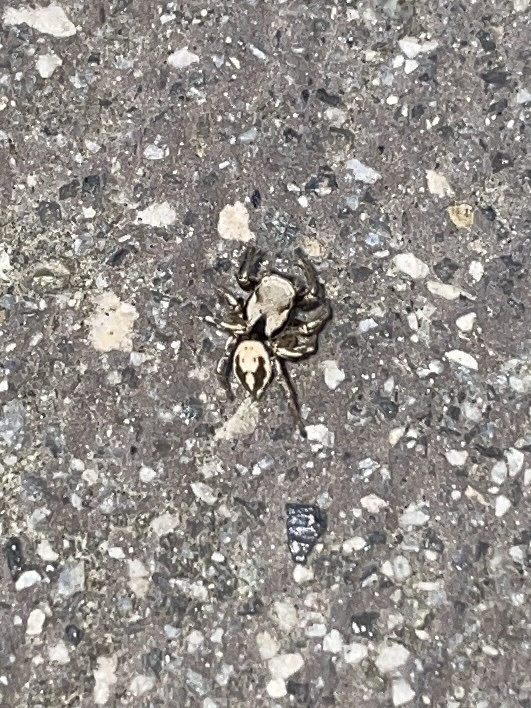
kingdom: Animalia
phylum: Arthropoda
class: Arachnida
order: Araneae
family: Salticidae
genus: Habronattus
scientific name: Habronattus californicus
